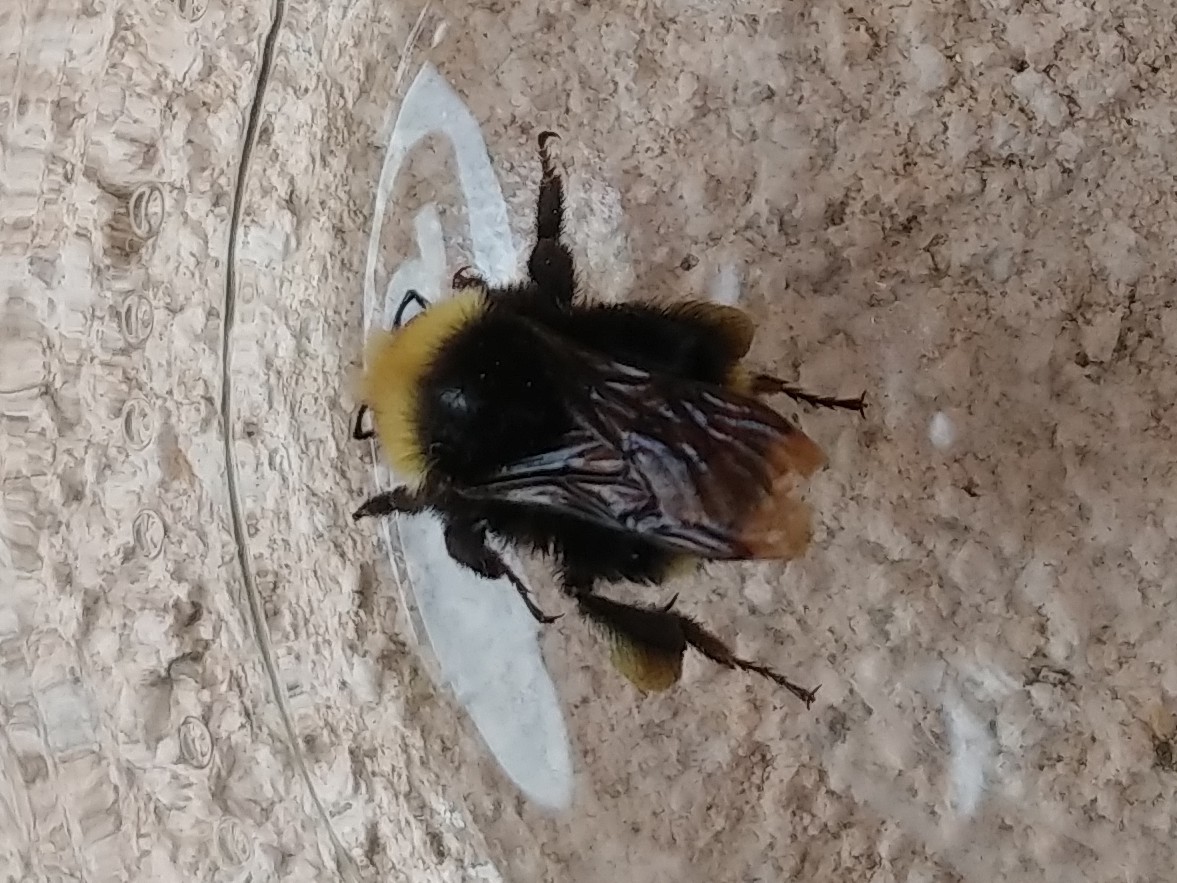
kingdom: Animalia
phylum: Arthropoda
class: Insecta
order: Hymenoptera
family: Apidae
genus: Bombus
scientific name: Bombus vosnesenskii
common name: Vosnesensky bumble bee
